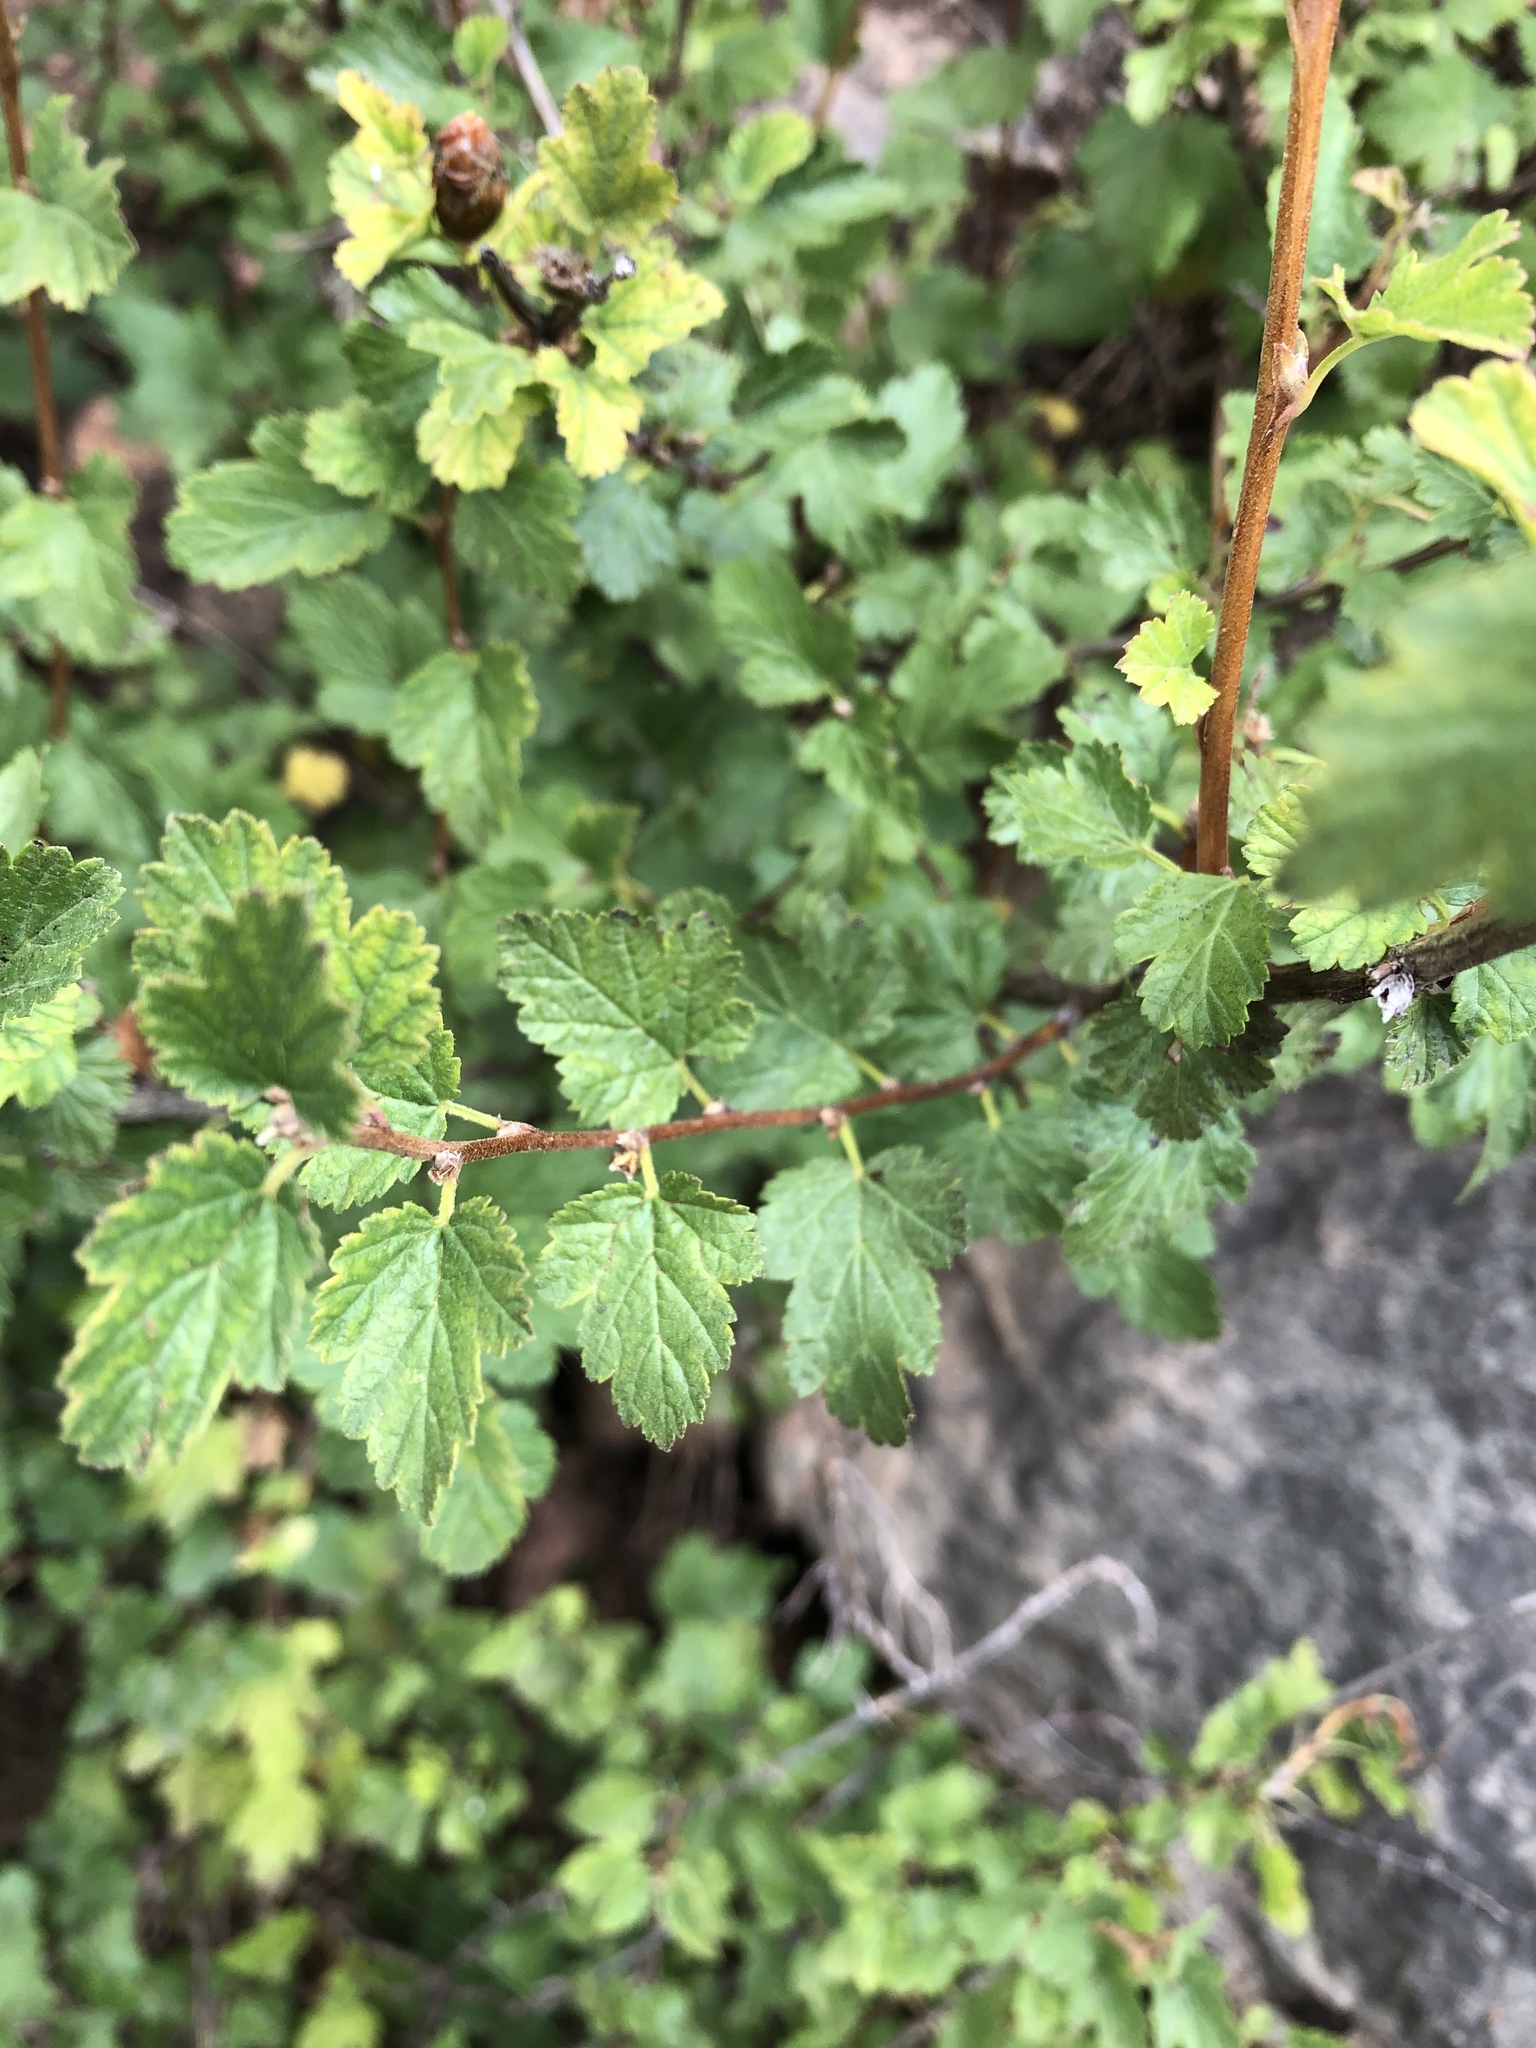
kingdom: Plantae
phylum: Tracheophyta
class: Magnoliopsida
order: Saxifragales
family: Grossulariaceae
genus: Ribes
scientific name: Ribes cereum
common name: Wax currant
